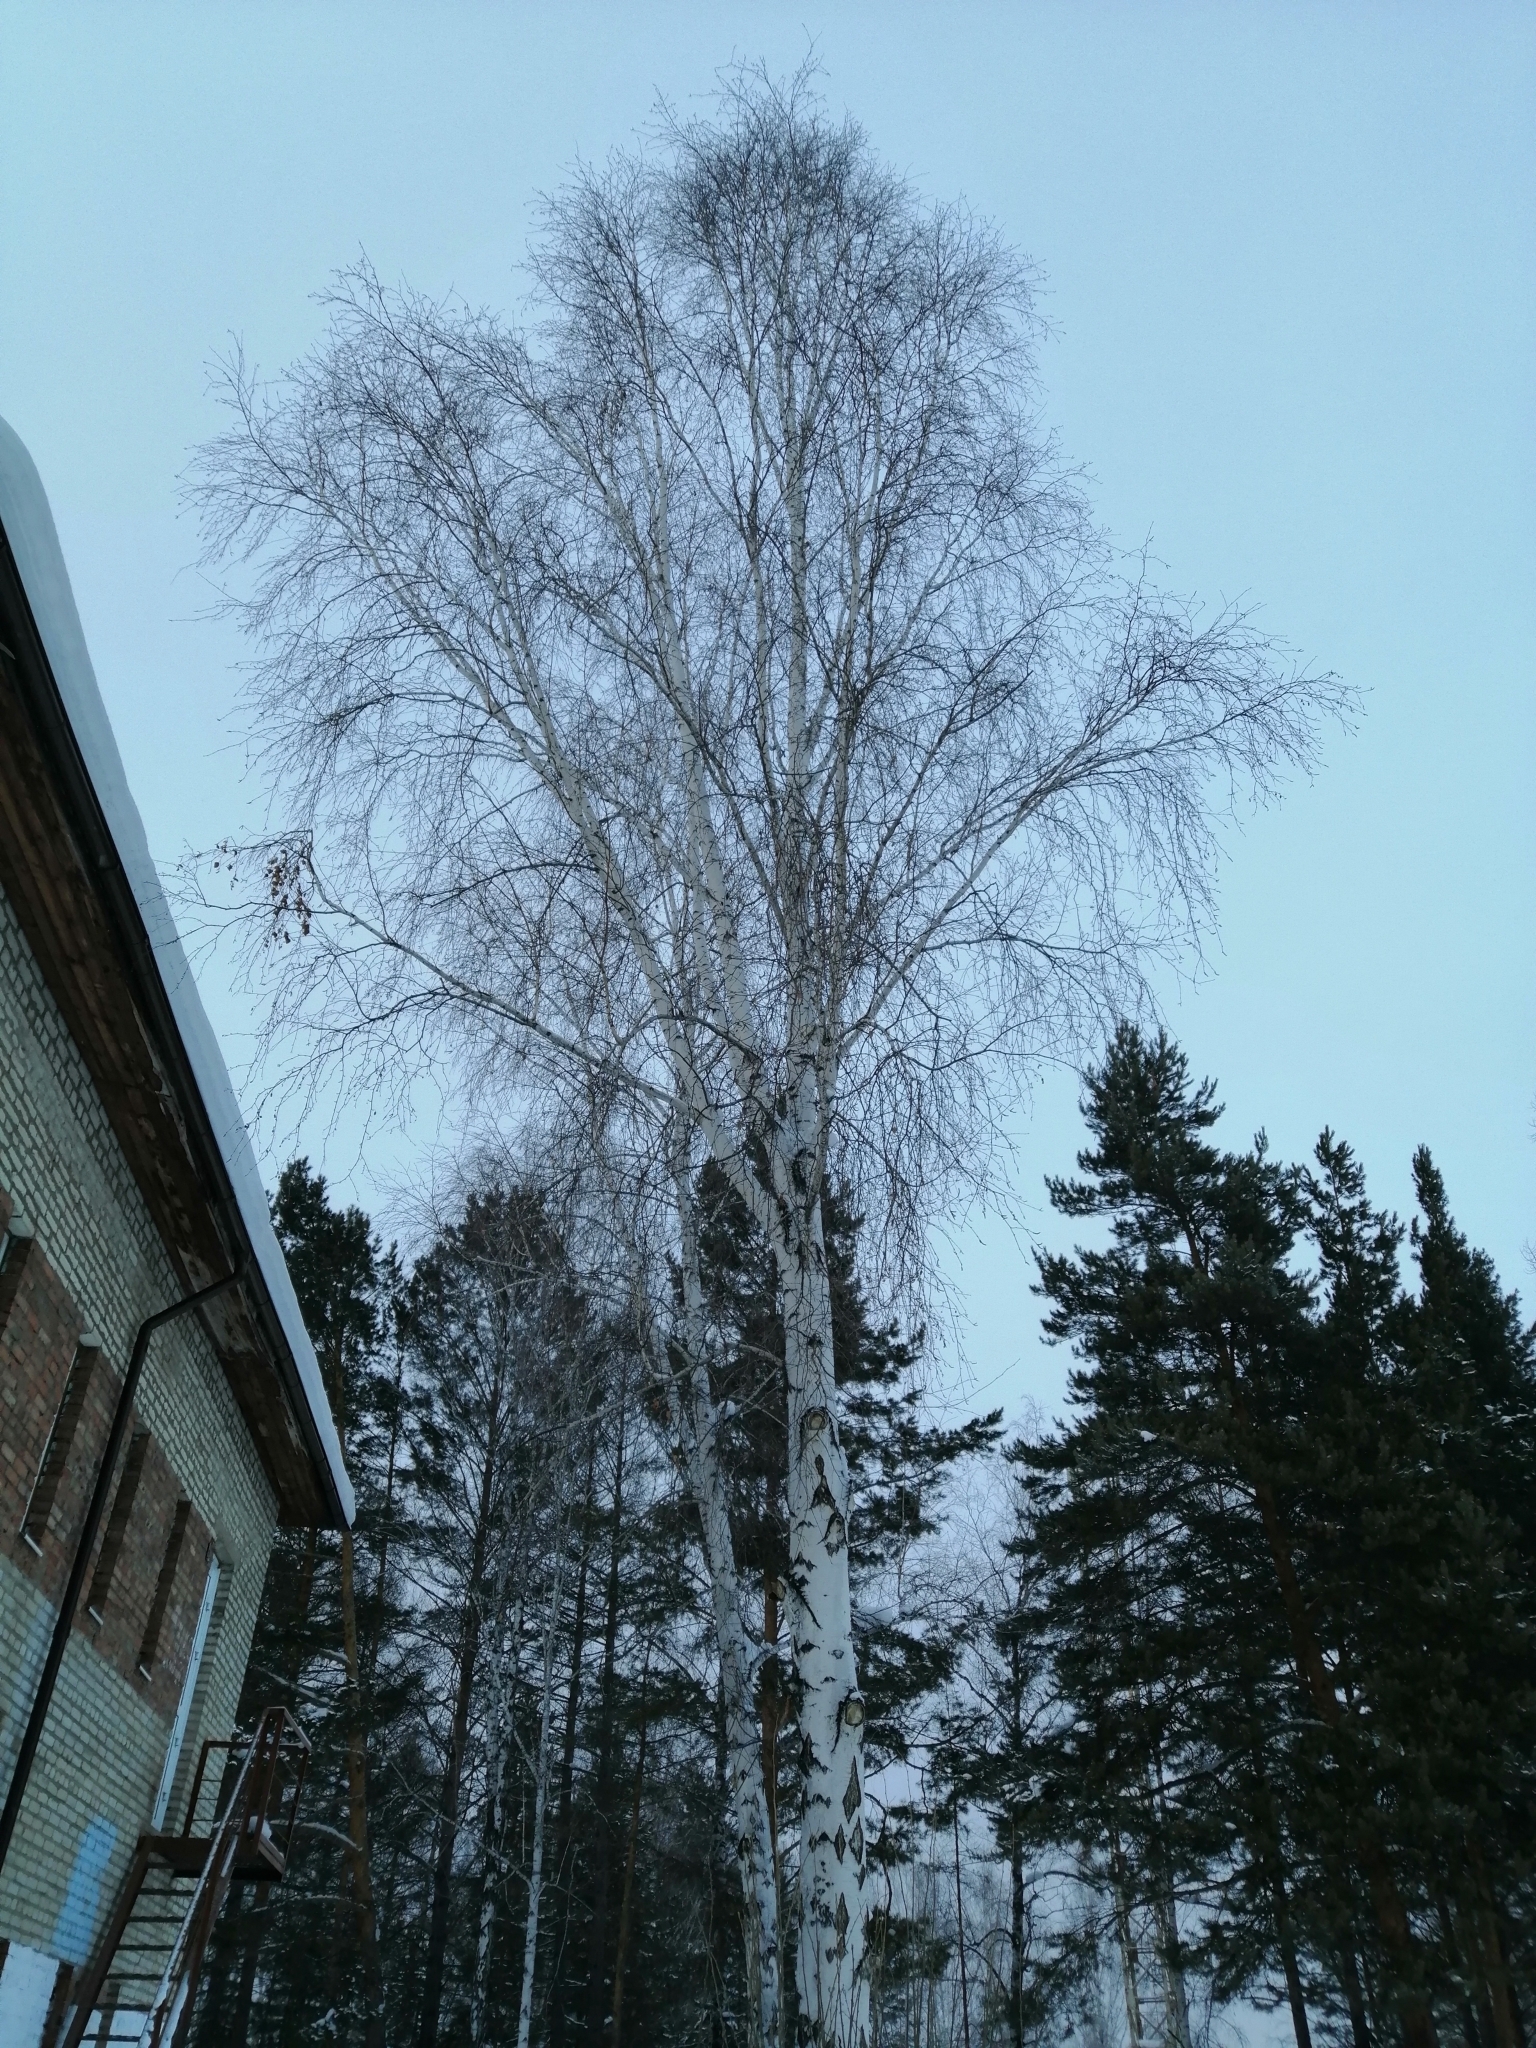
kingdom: Plantae
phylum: Tracheophyta
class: Magnoliopsida
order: Fagales
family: Betulaceae
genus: Betula
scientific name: Betula pendula
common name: Silver birch
